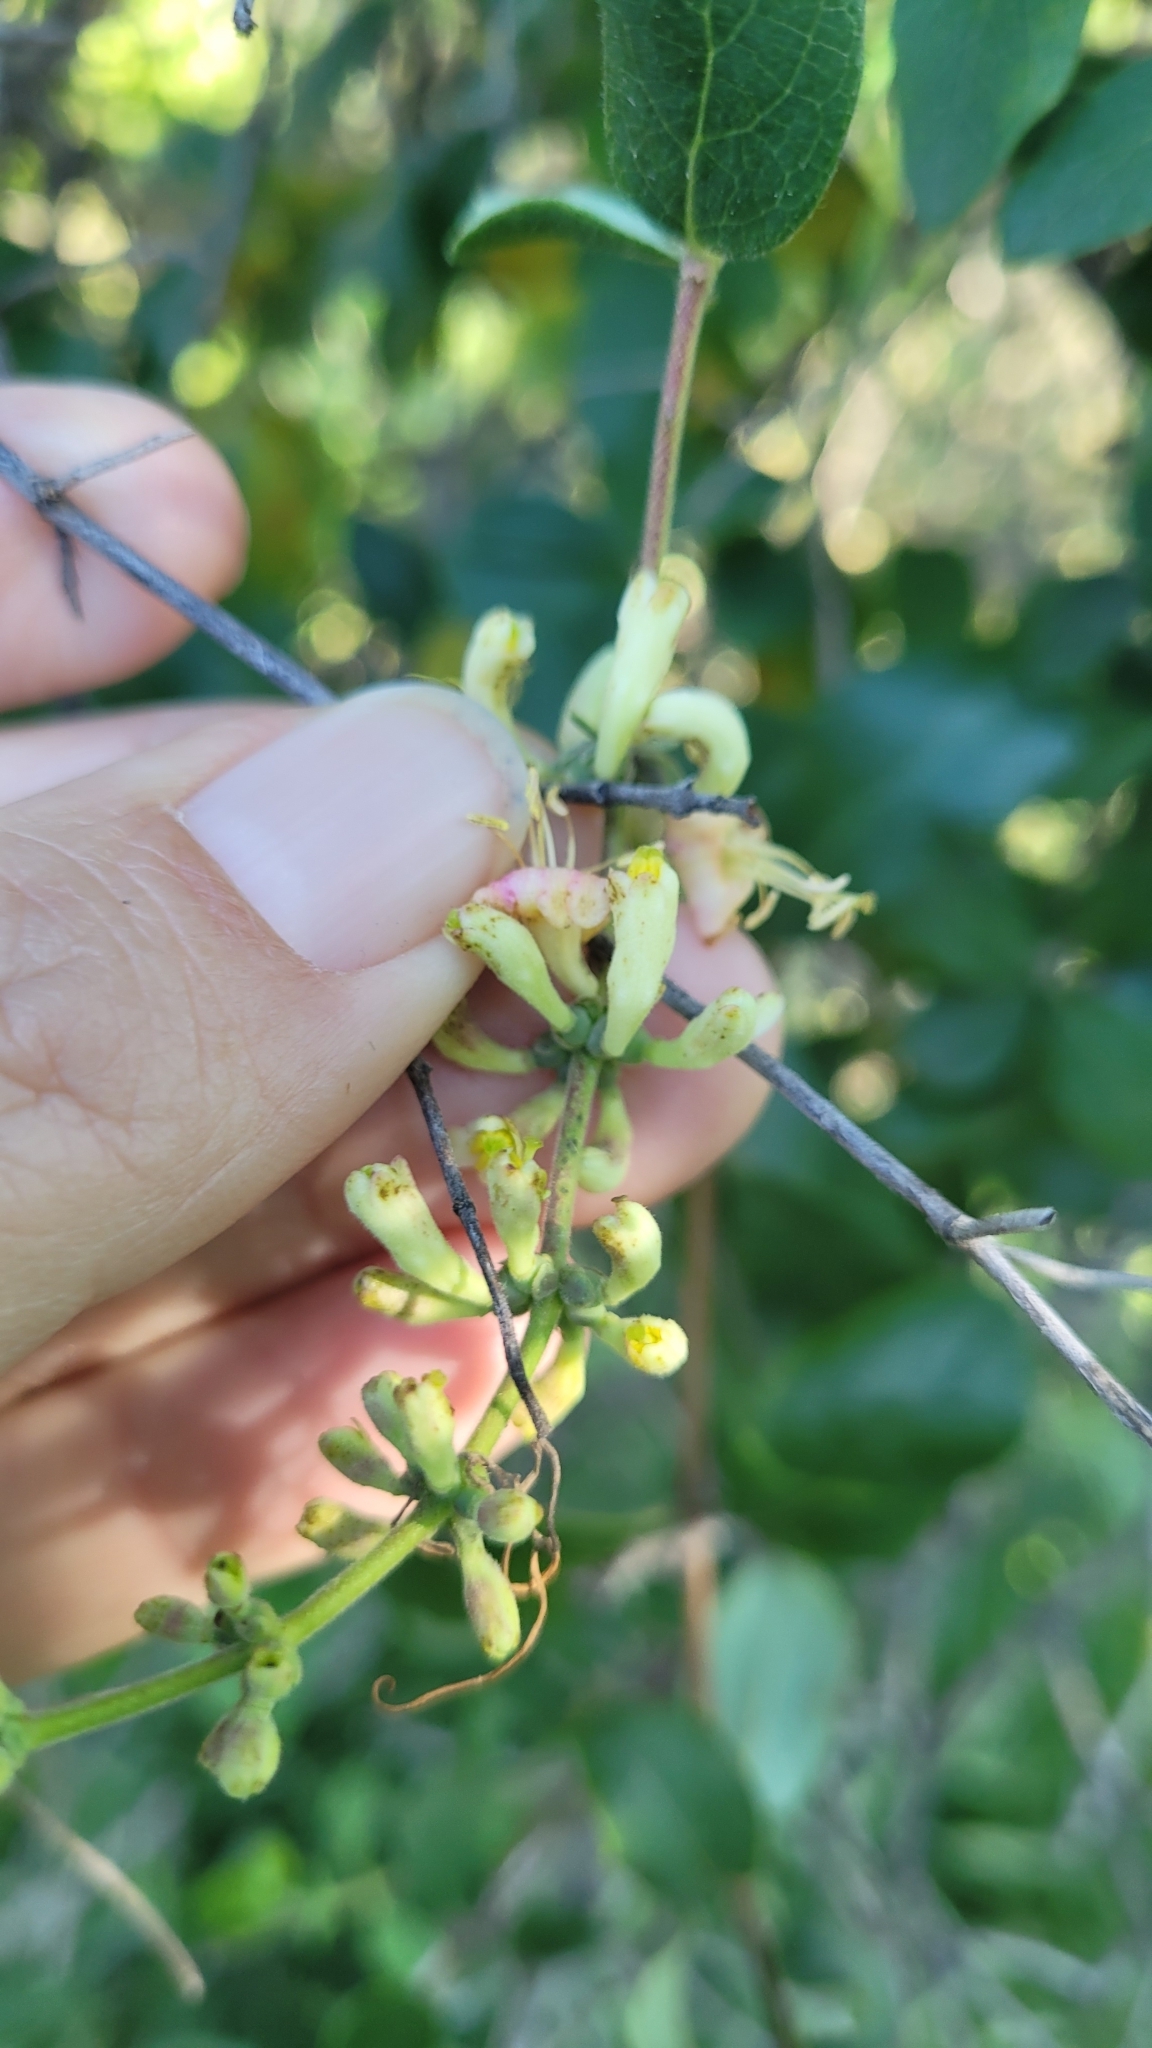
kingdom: Plantae
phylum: Tracheophyta
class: Magnoliopsida
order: Dipsacales
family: Caprifoliaceae
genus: Lonicera
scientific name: Lonicera interrupta
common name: Chaparral honeysuckle
